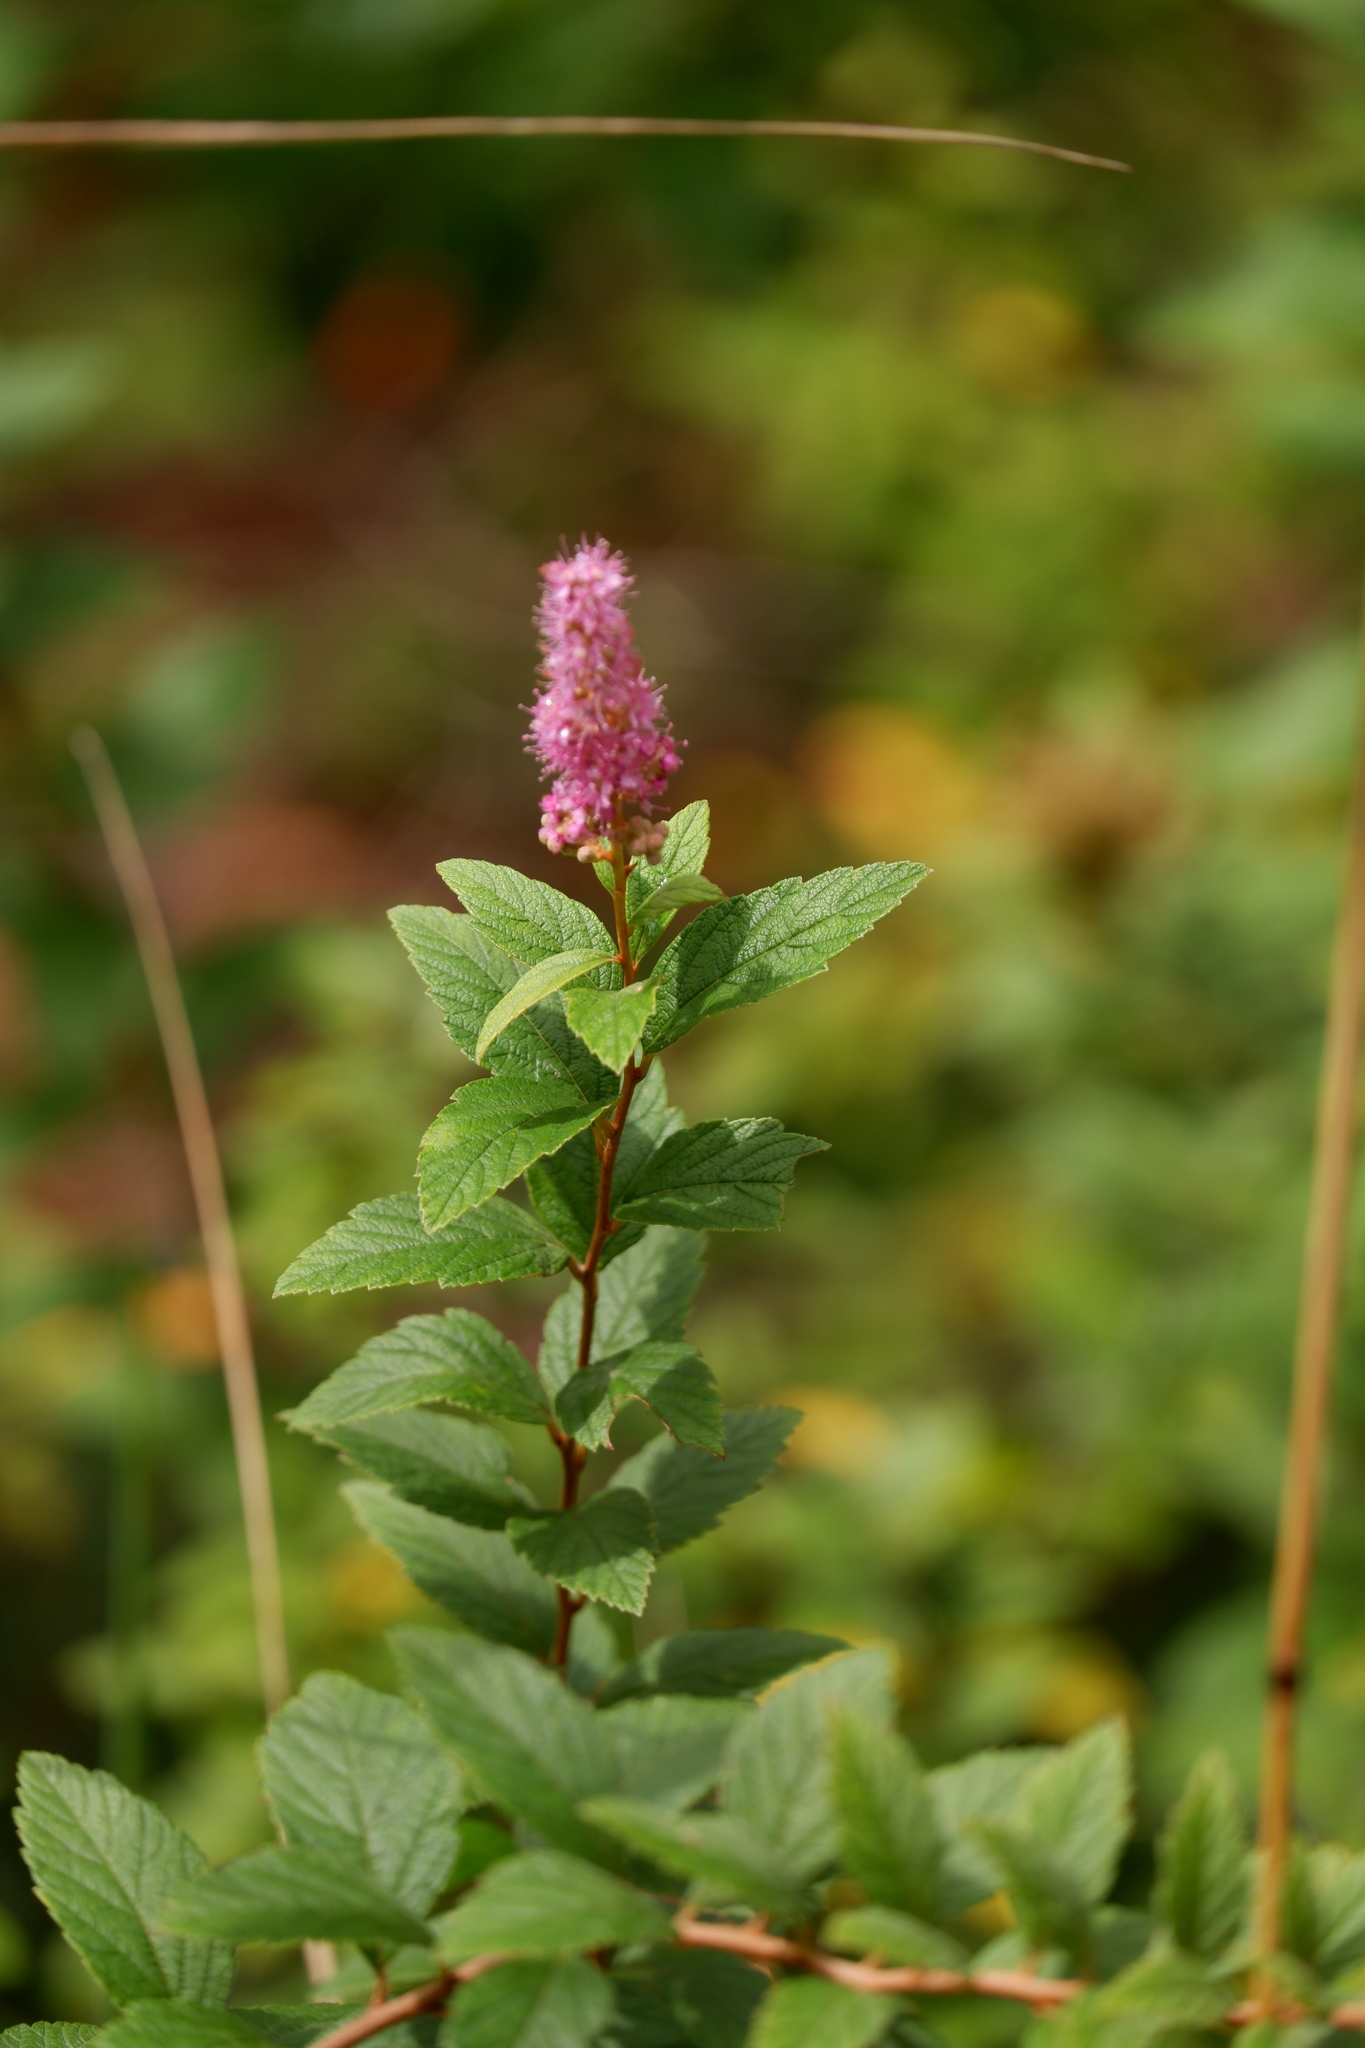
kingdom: Plantae
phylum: Tracheophyta
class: Magnoliopsida
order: Rosales
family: Rosaceae
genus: Spiraea
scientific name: Spiraea tomentosa
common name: Hardhack
